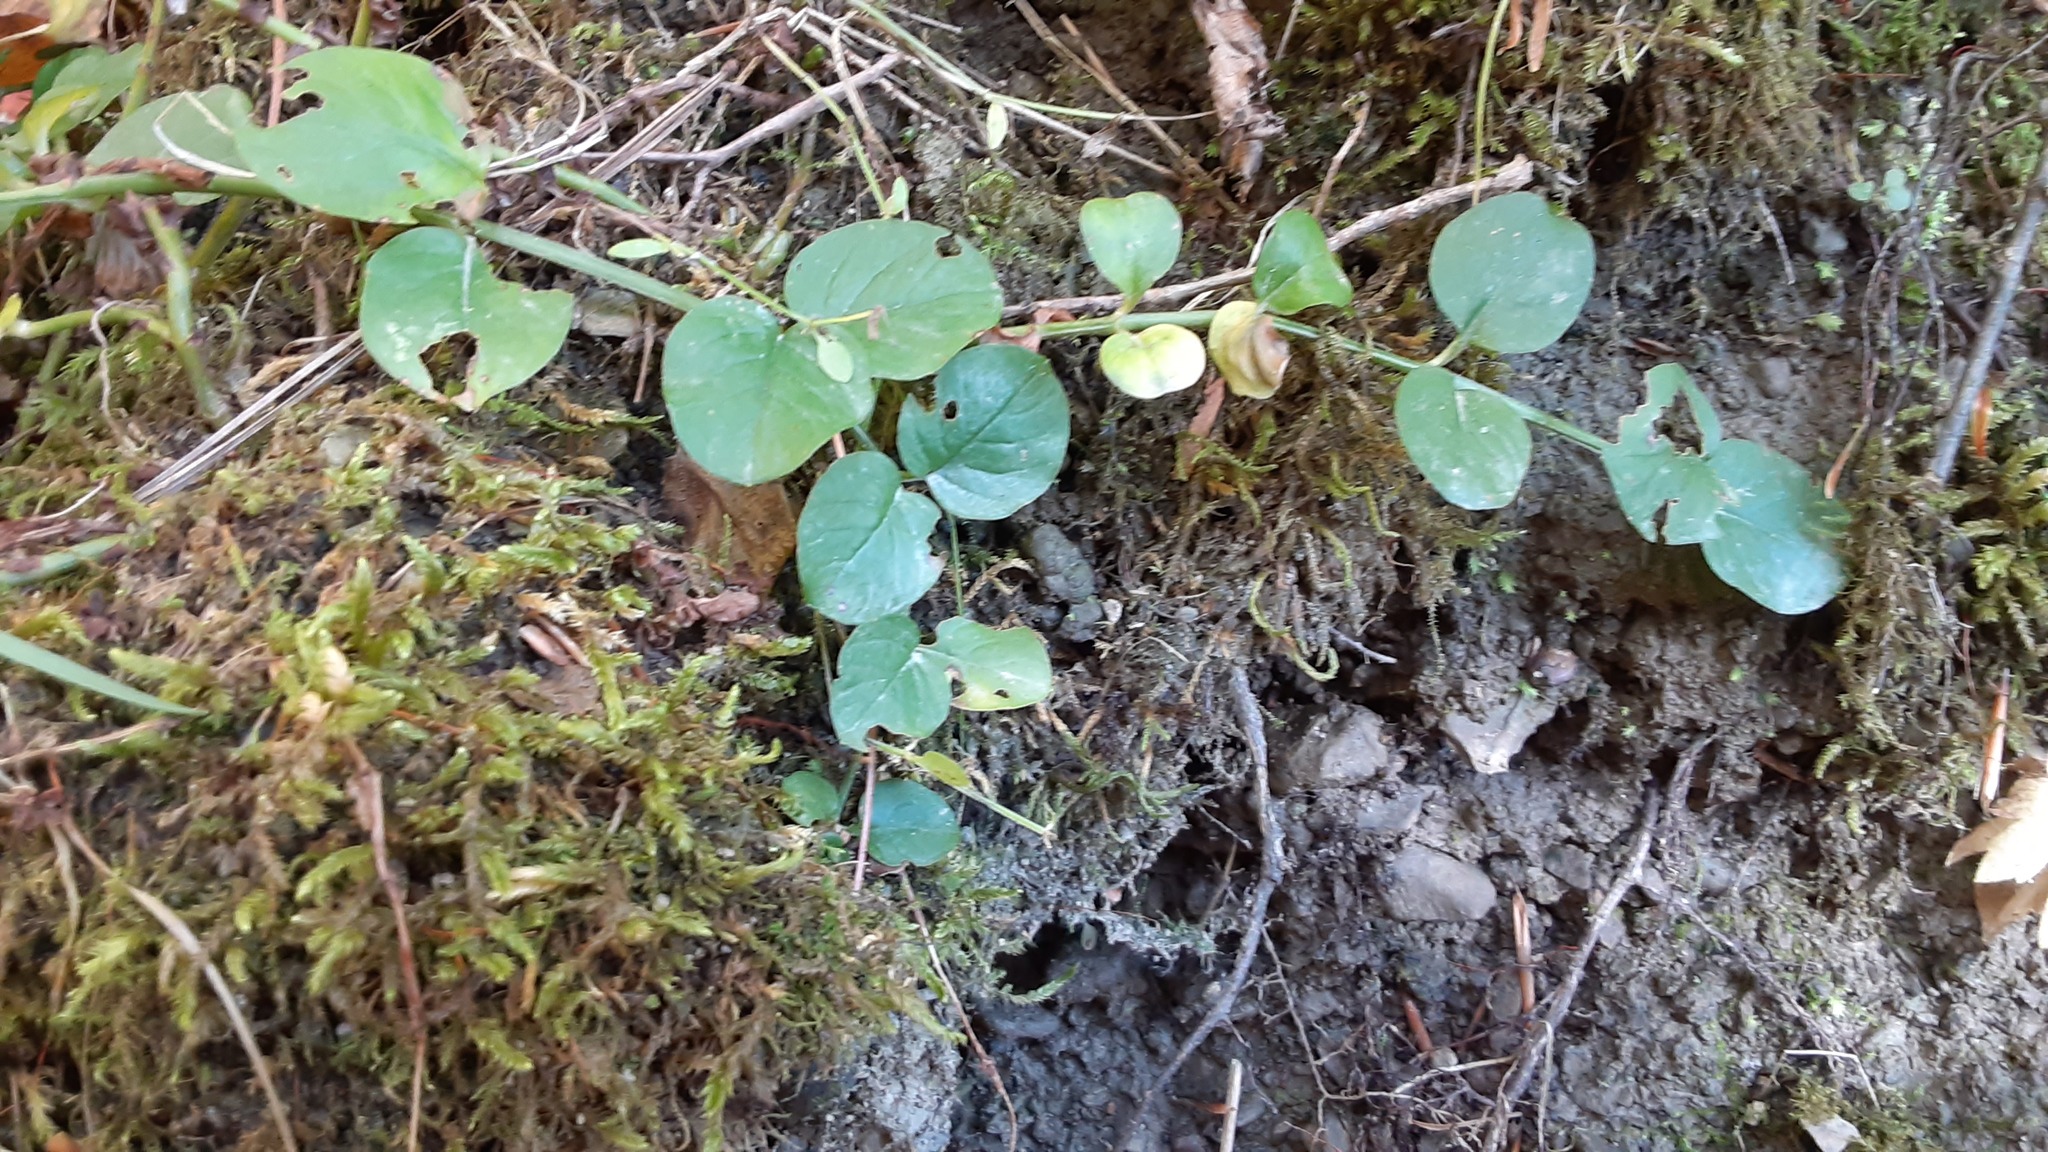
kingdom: Plantae
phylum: Tracheophyta
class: Magnoliopsida
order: Ericales
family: Primulaceae
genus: Lysimachia
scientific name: Lysimachia nummularia
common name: Moneywort
